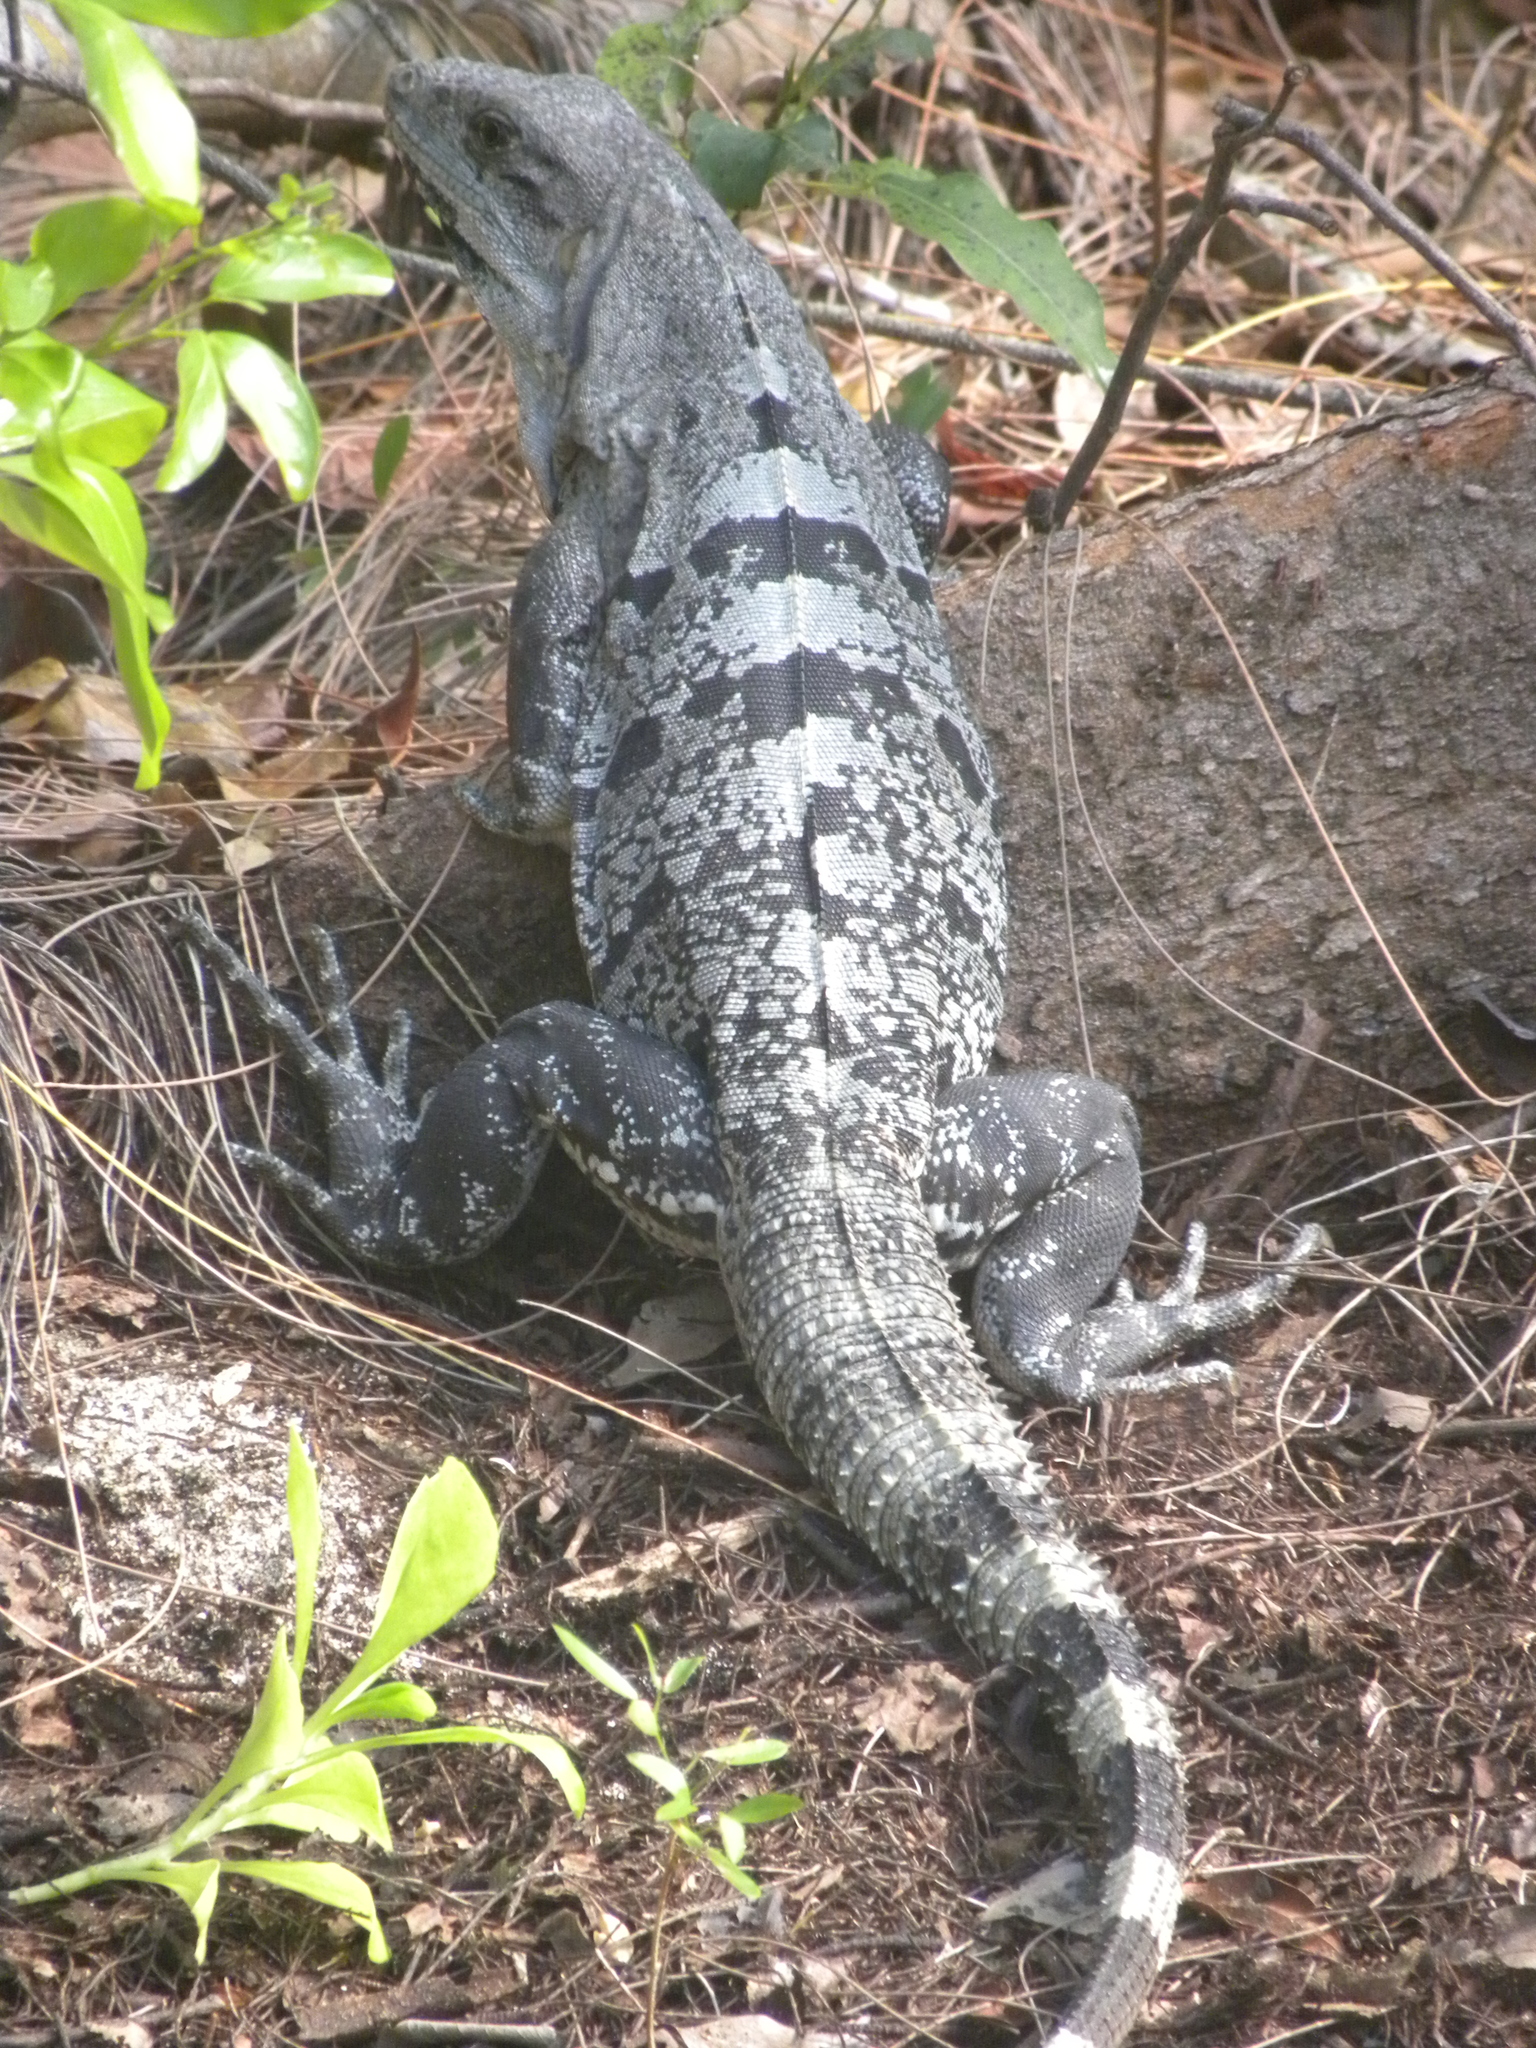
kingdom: Animalia
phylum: Chordata
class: Squamata
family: Iguanidae
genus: Ctenosaura
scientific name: Ctenosaura similis
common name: Black spiny-tailed iguana
